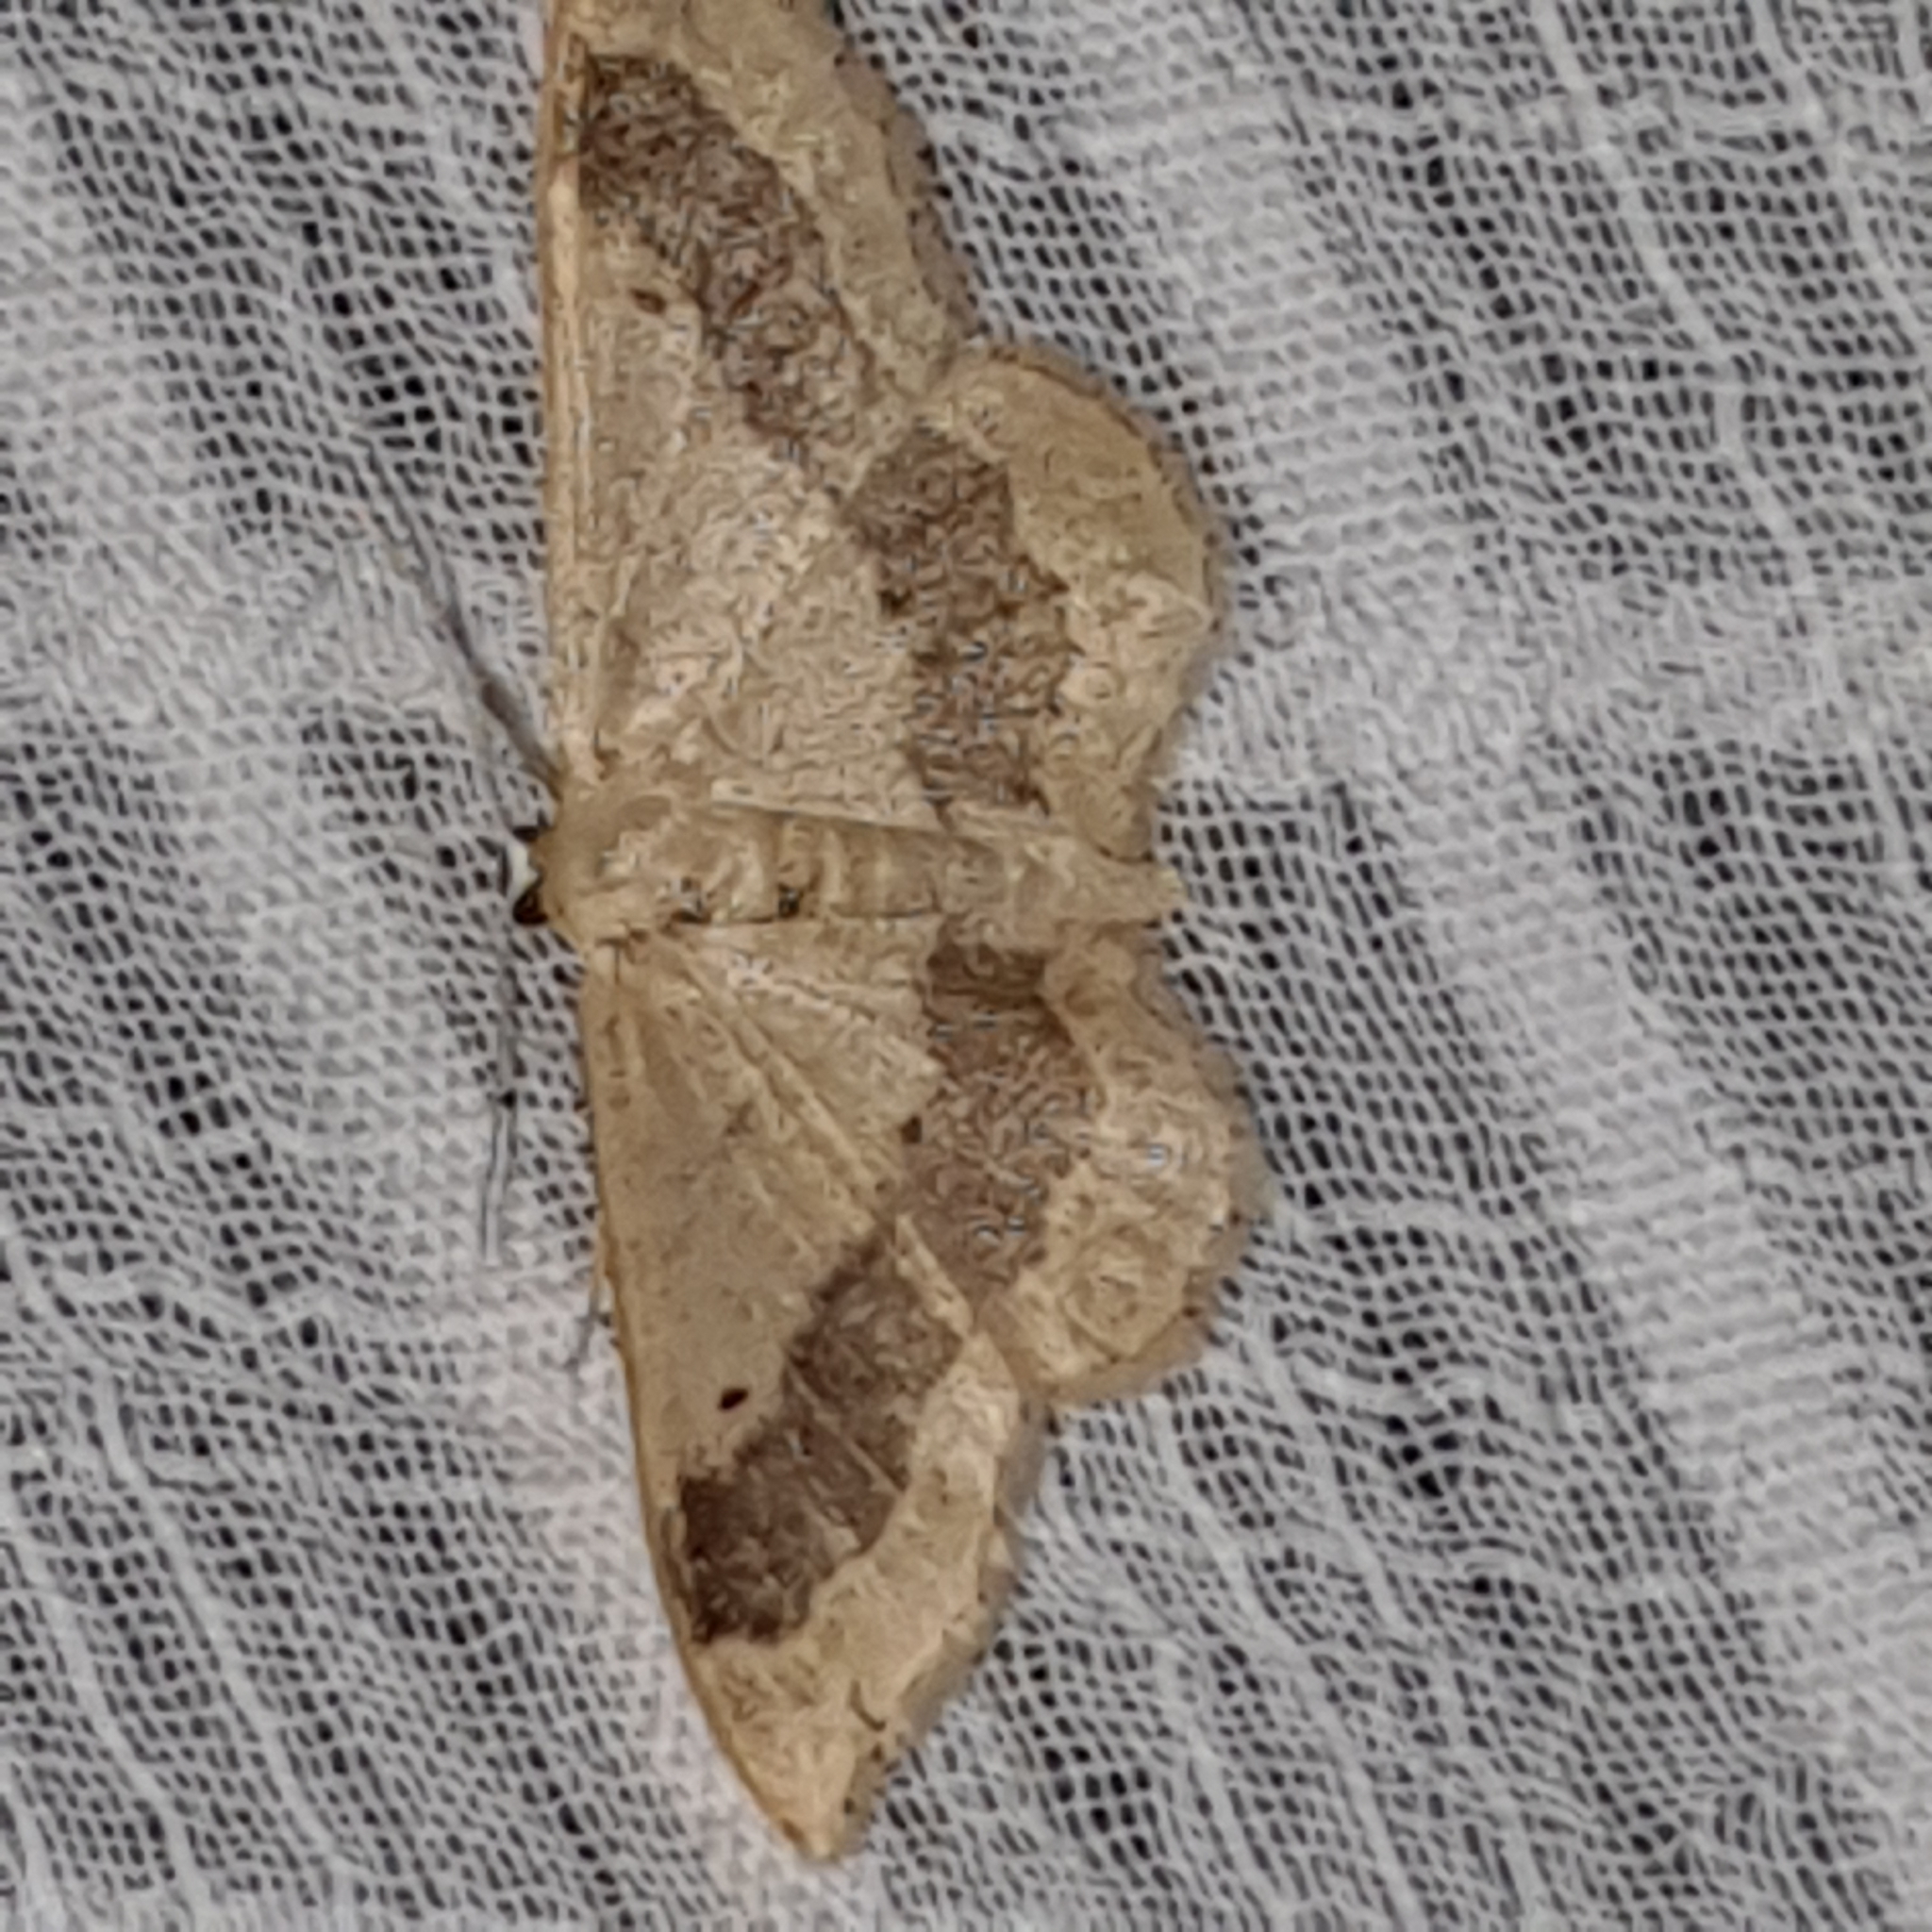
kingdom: Animalia
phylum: Arthropoda
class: Insecta
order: Lepidoptera
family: Geometridae
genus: Idaea
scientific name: Idaea aversata
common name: Riband wave
